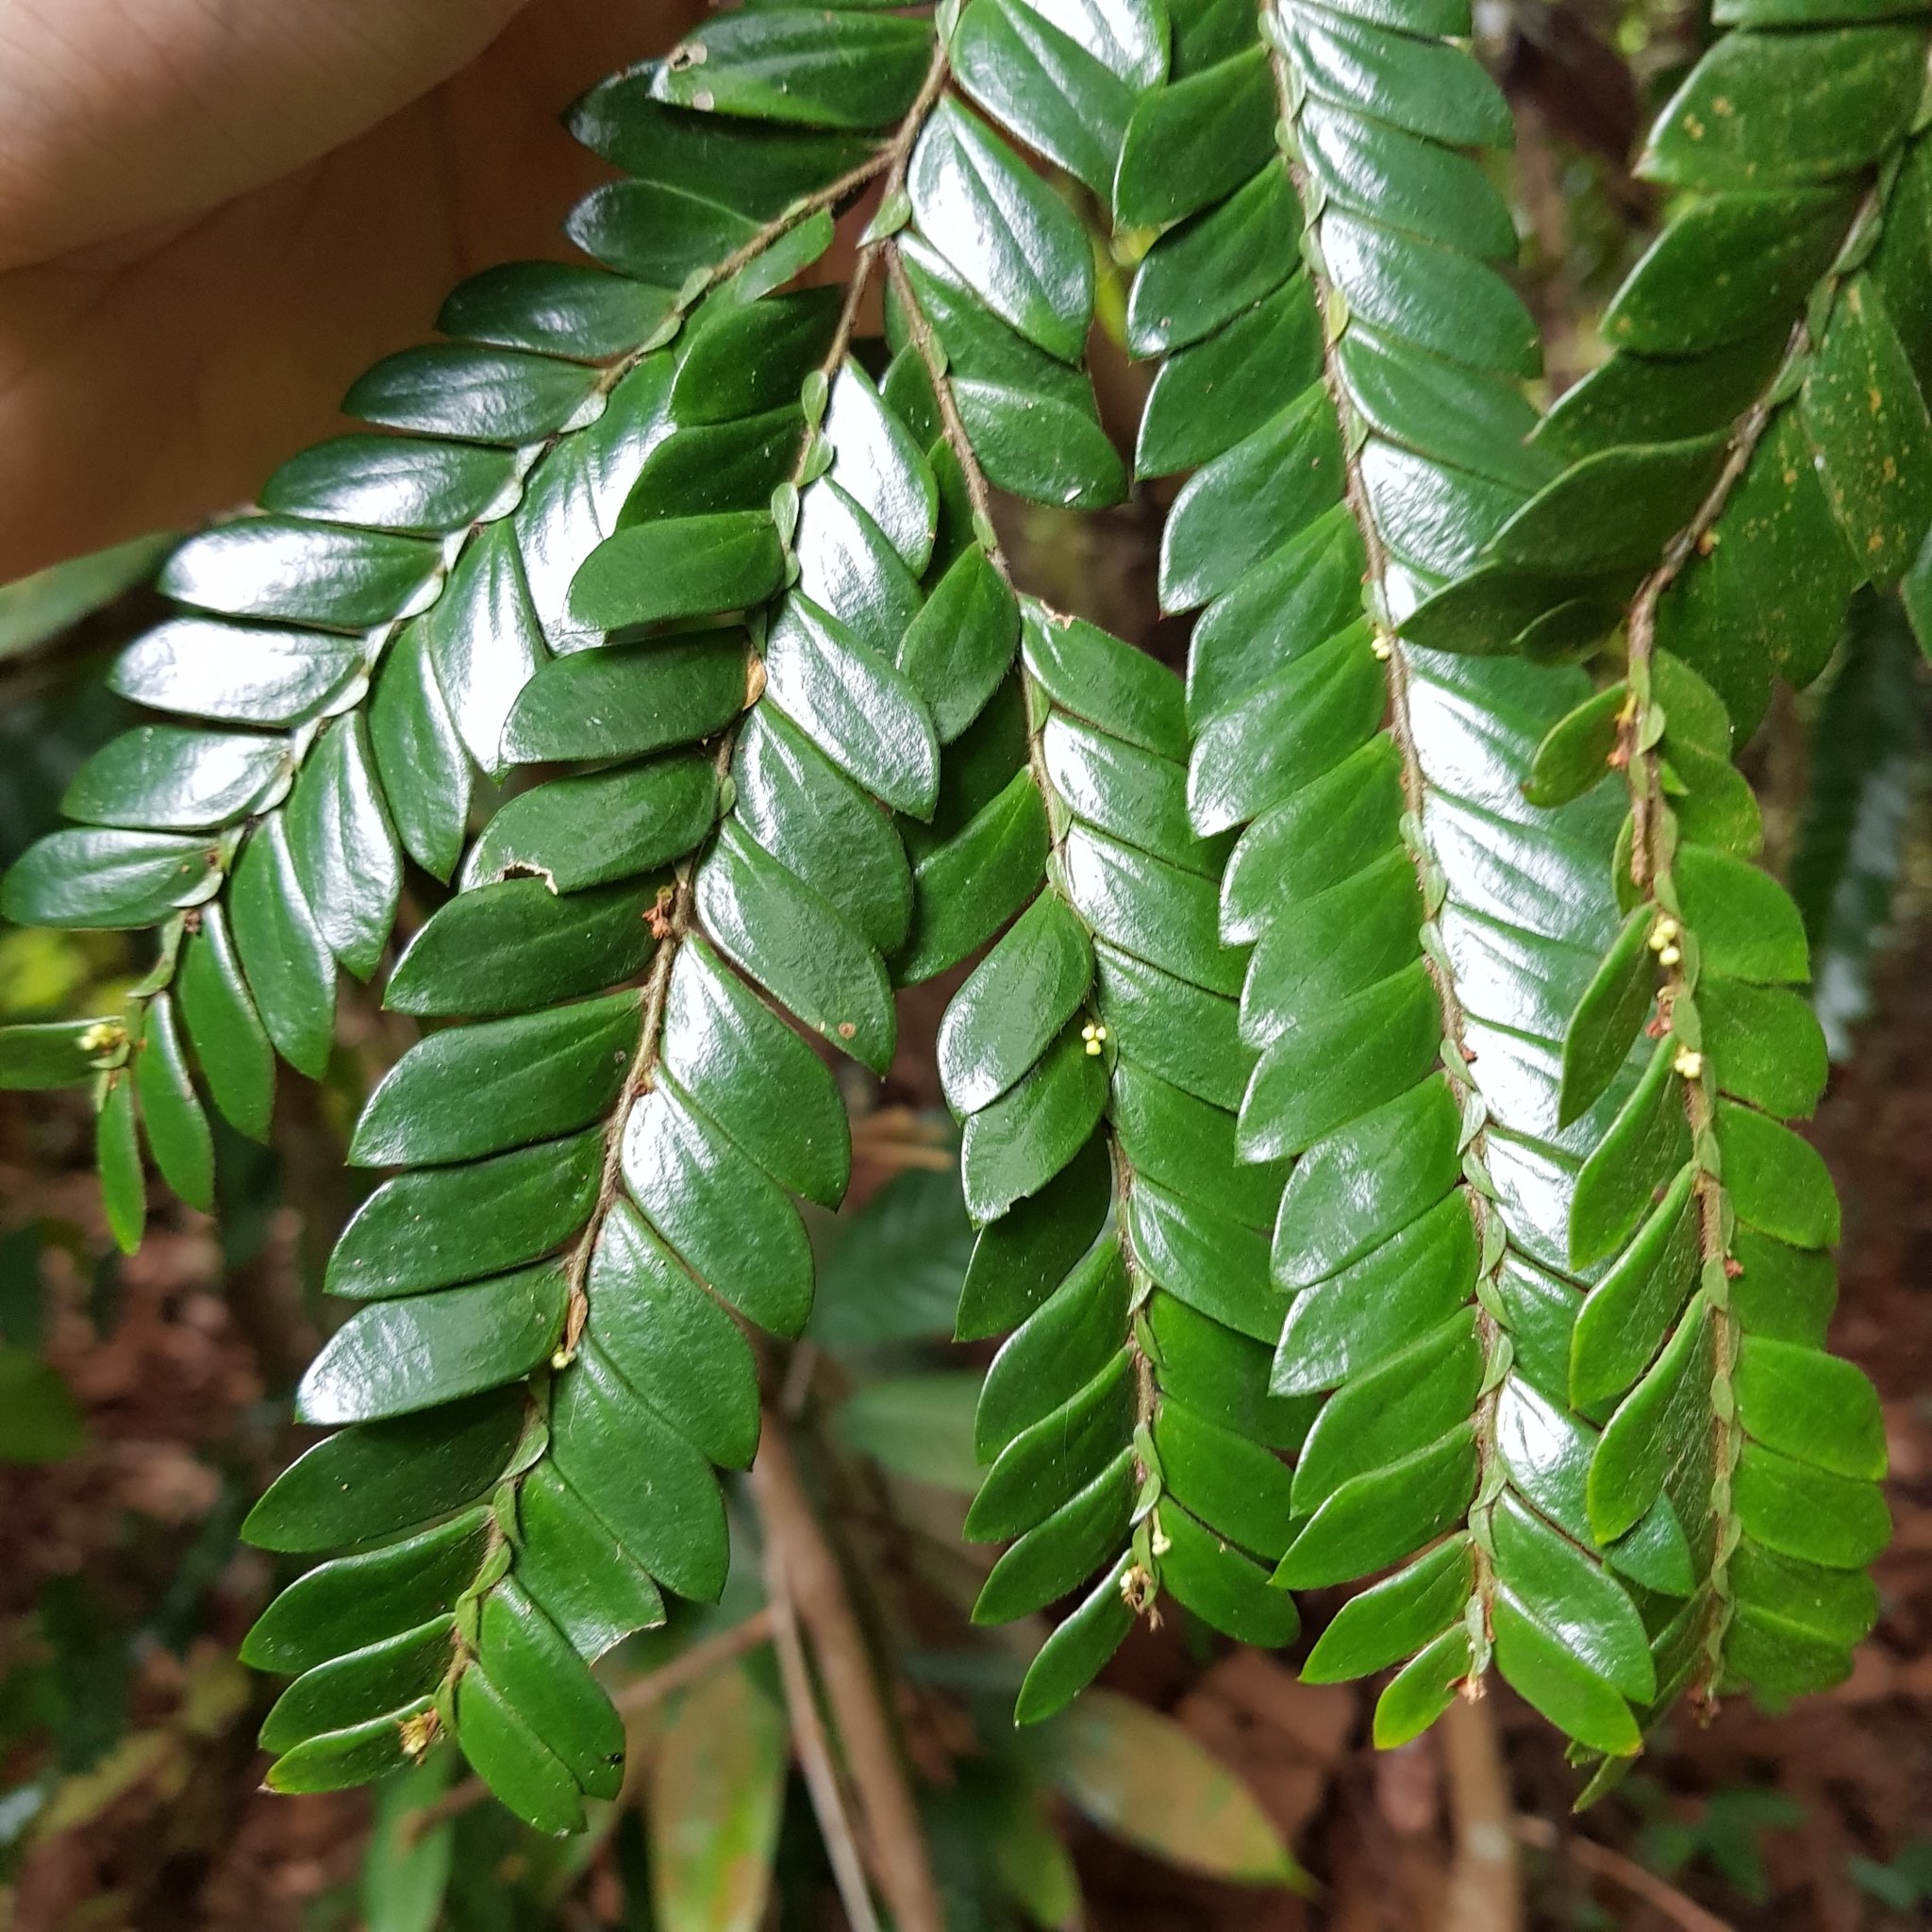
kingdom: Plantae
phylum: Tracheophyta
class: Magnoliopsida
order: Cucurbitales
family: Anisophylleaceae
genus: Anisophyllea
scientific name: Anisophyllea disticha
